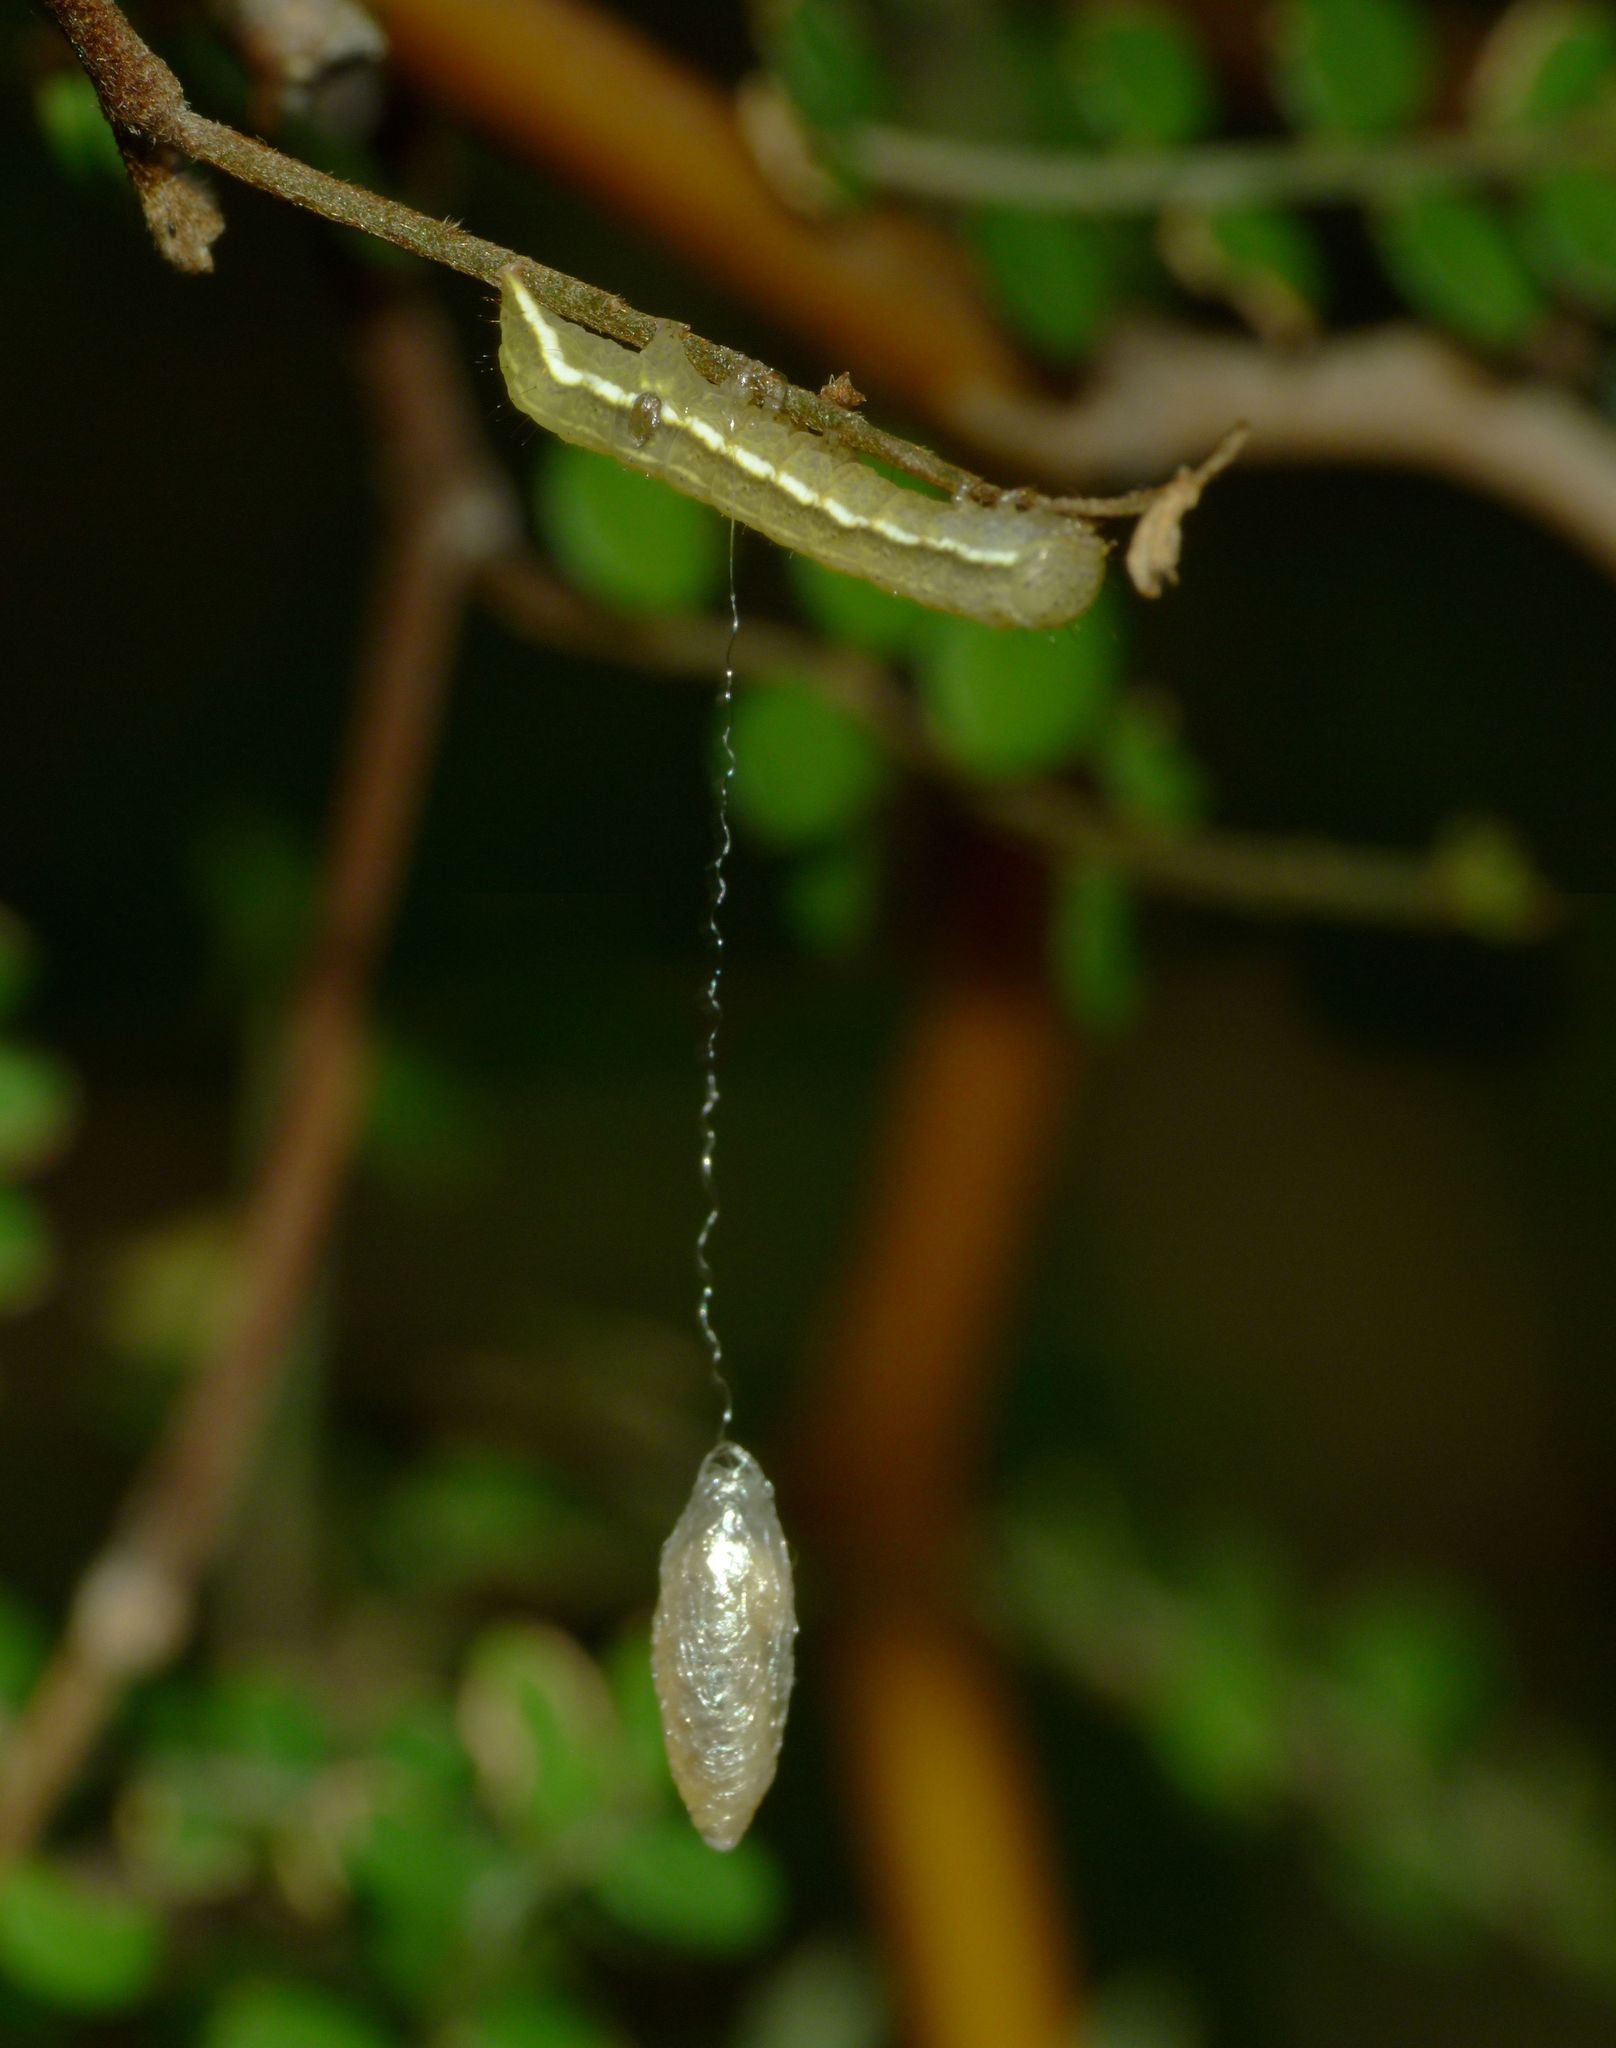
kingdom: Animalia
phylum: Arthropoda
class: Insecta
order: Lepidoptera
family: Noctuidae
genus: Meterana
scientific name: Meterana decorata
